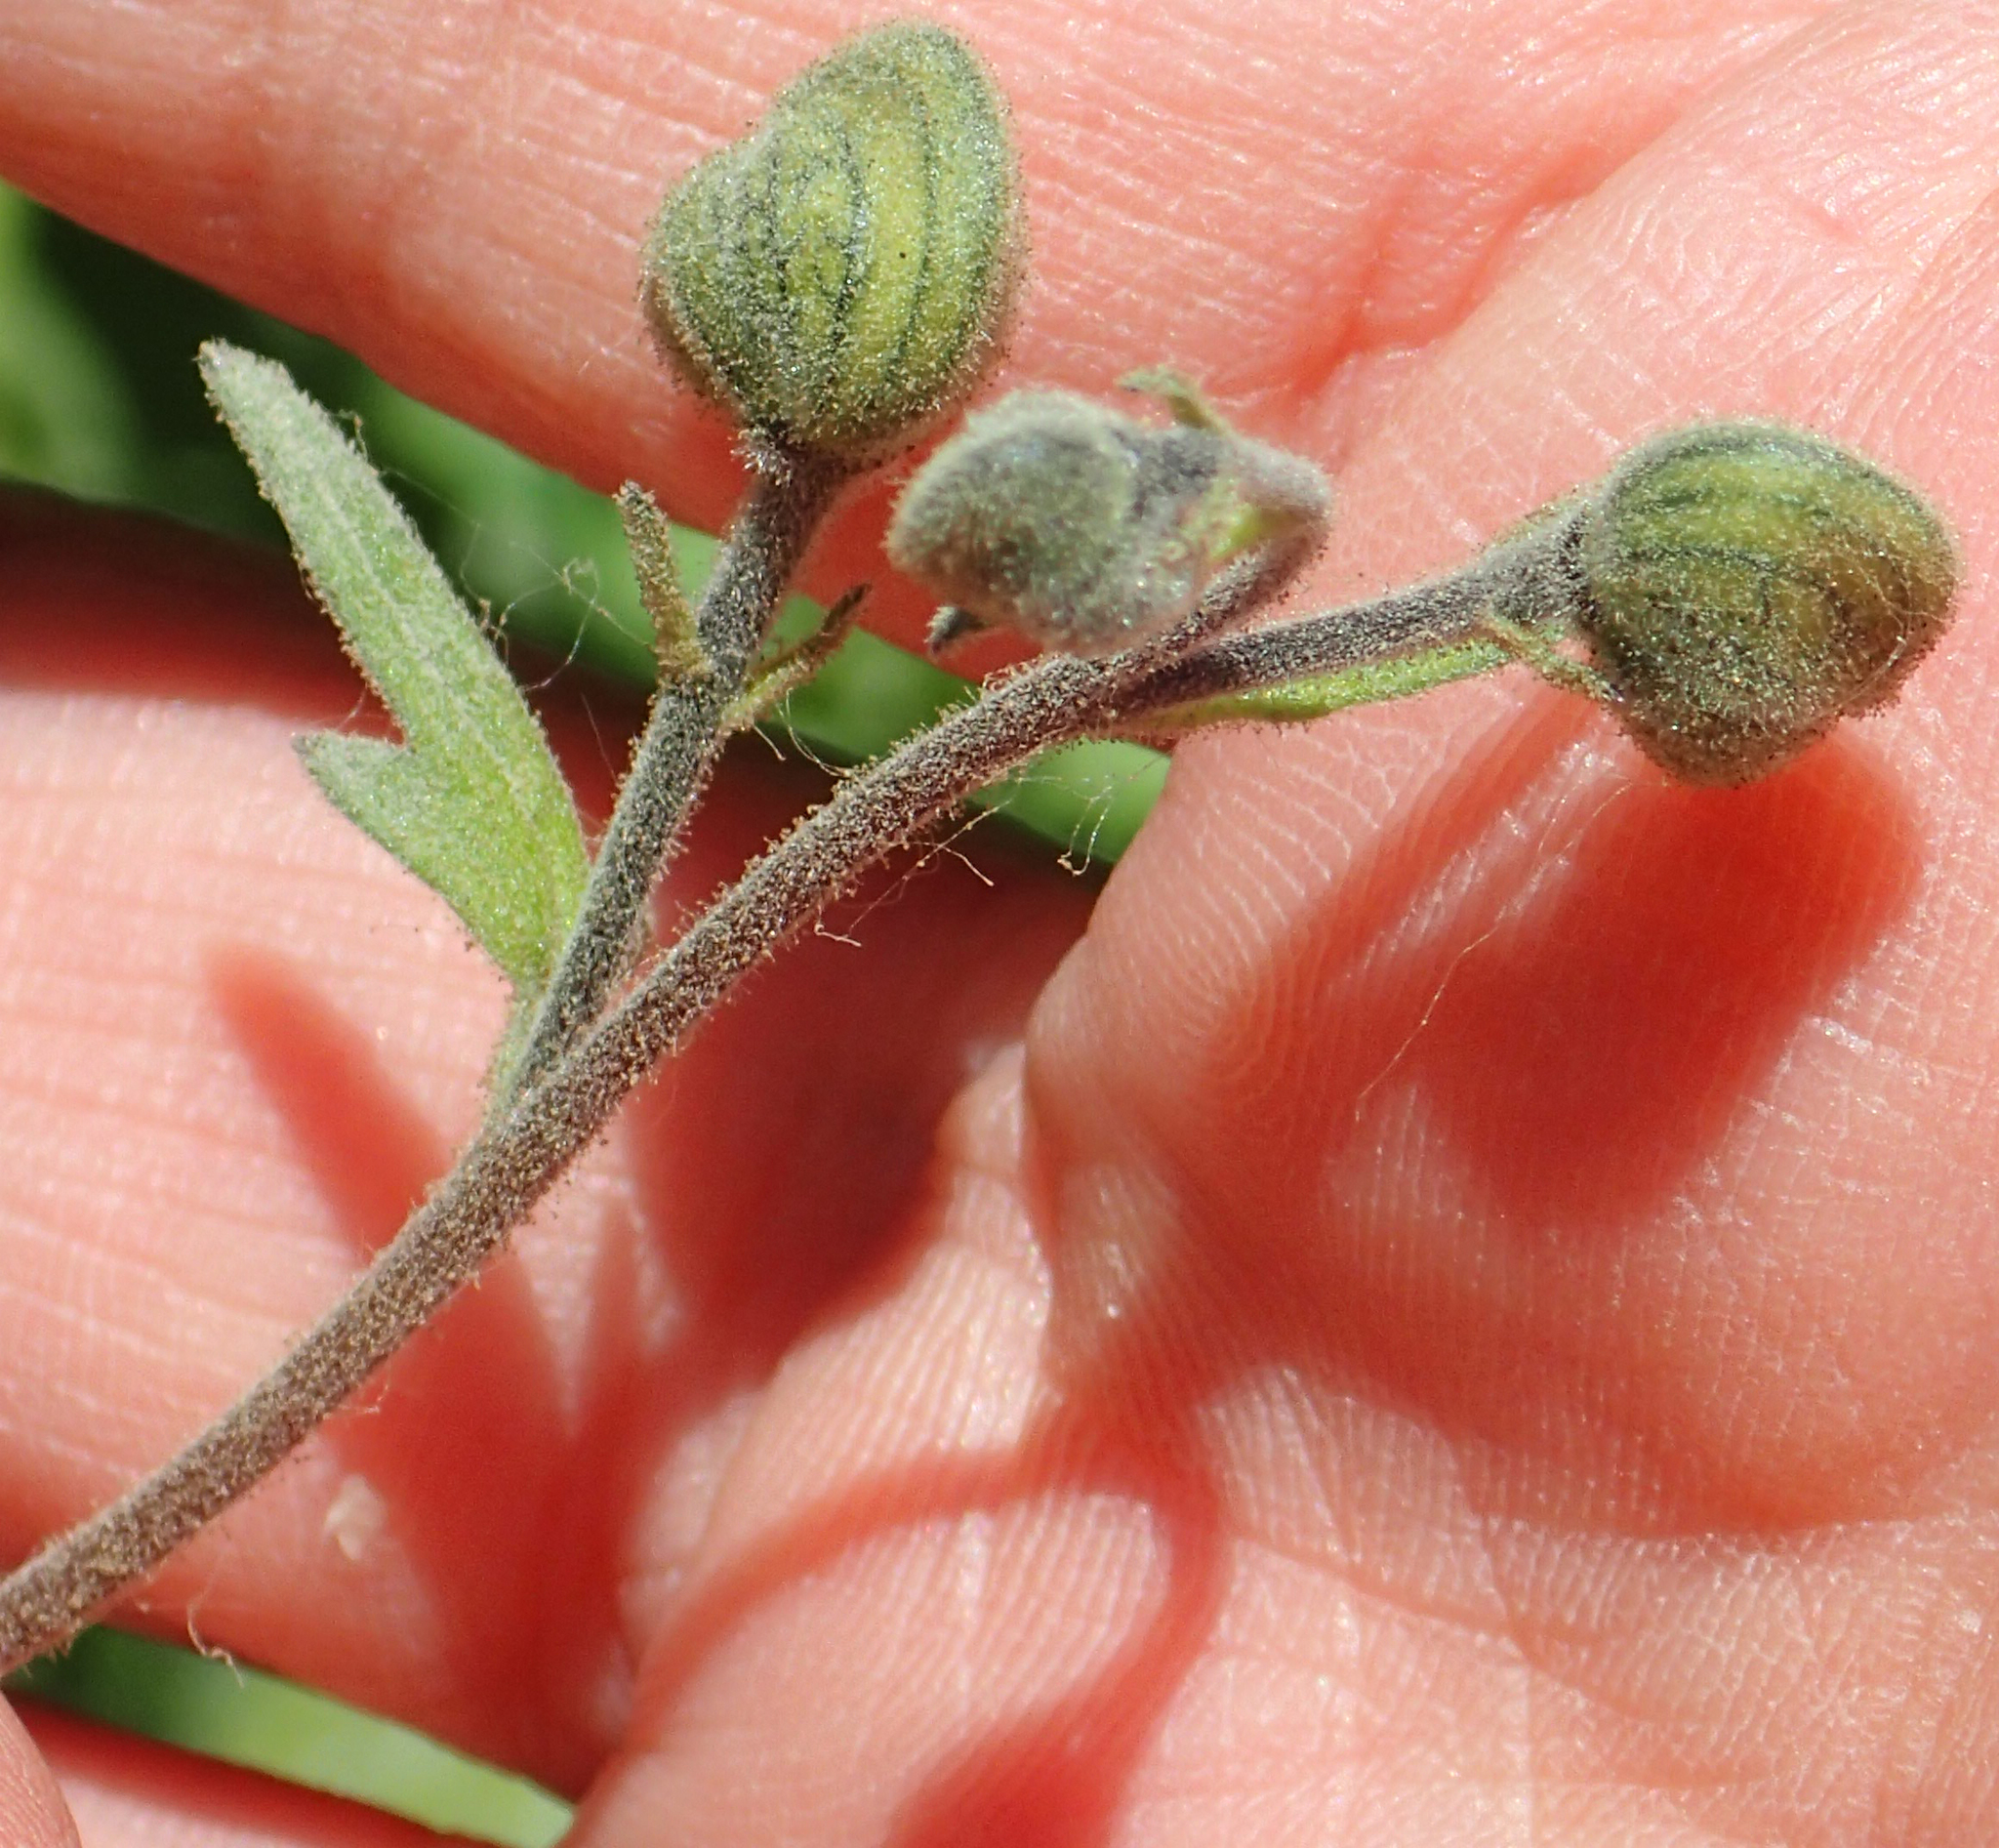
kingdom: Plantae
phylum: Tracheophyta
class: Magnoliopsida
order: Ranunculales
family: Ranunculaceae
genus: Aconitum
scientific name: Aconitum delphiniifolium
